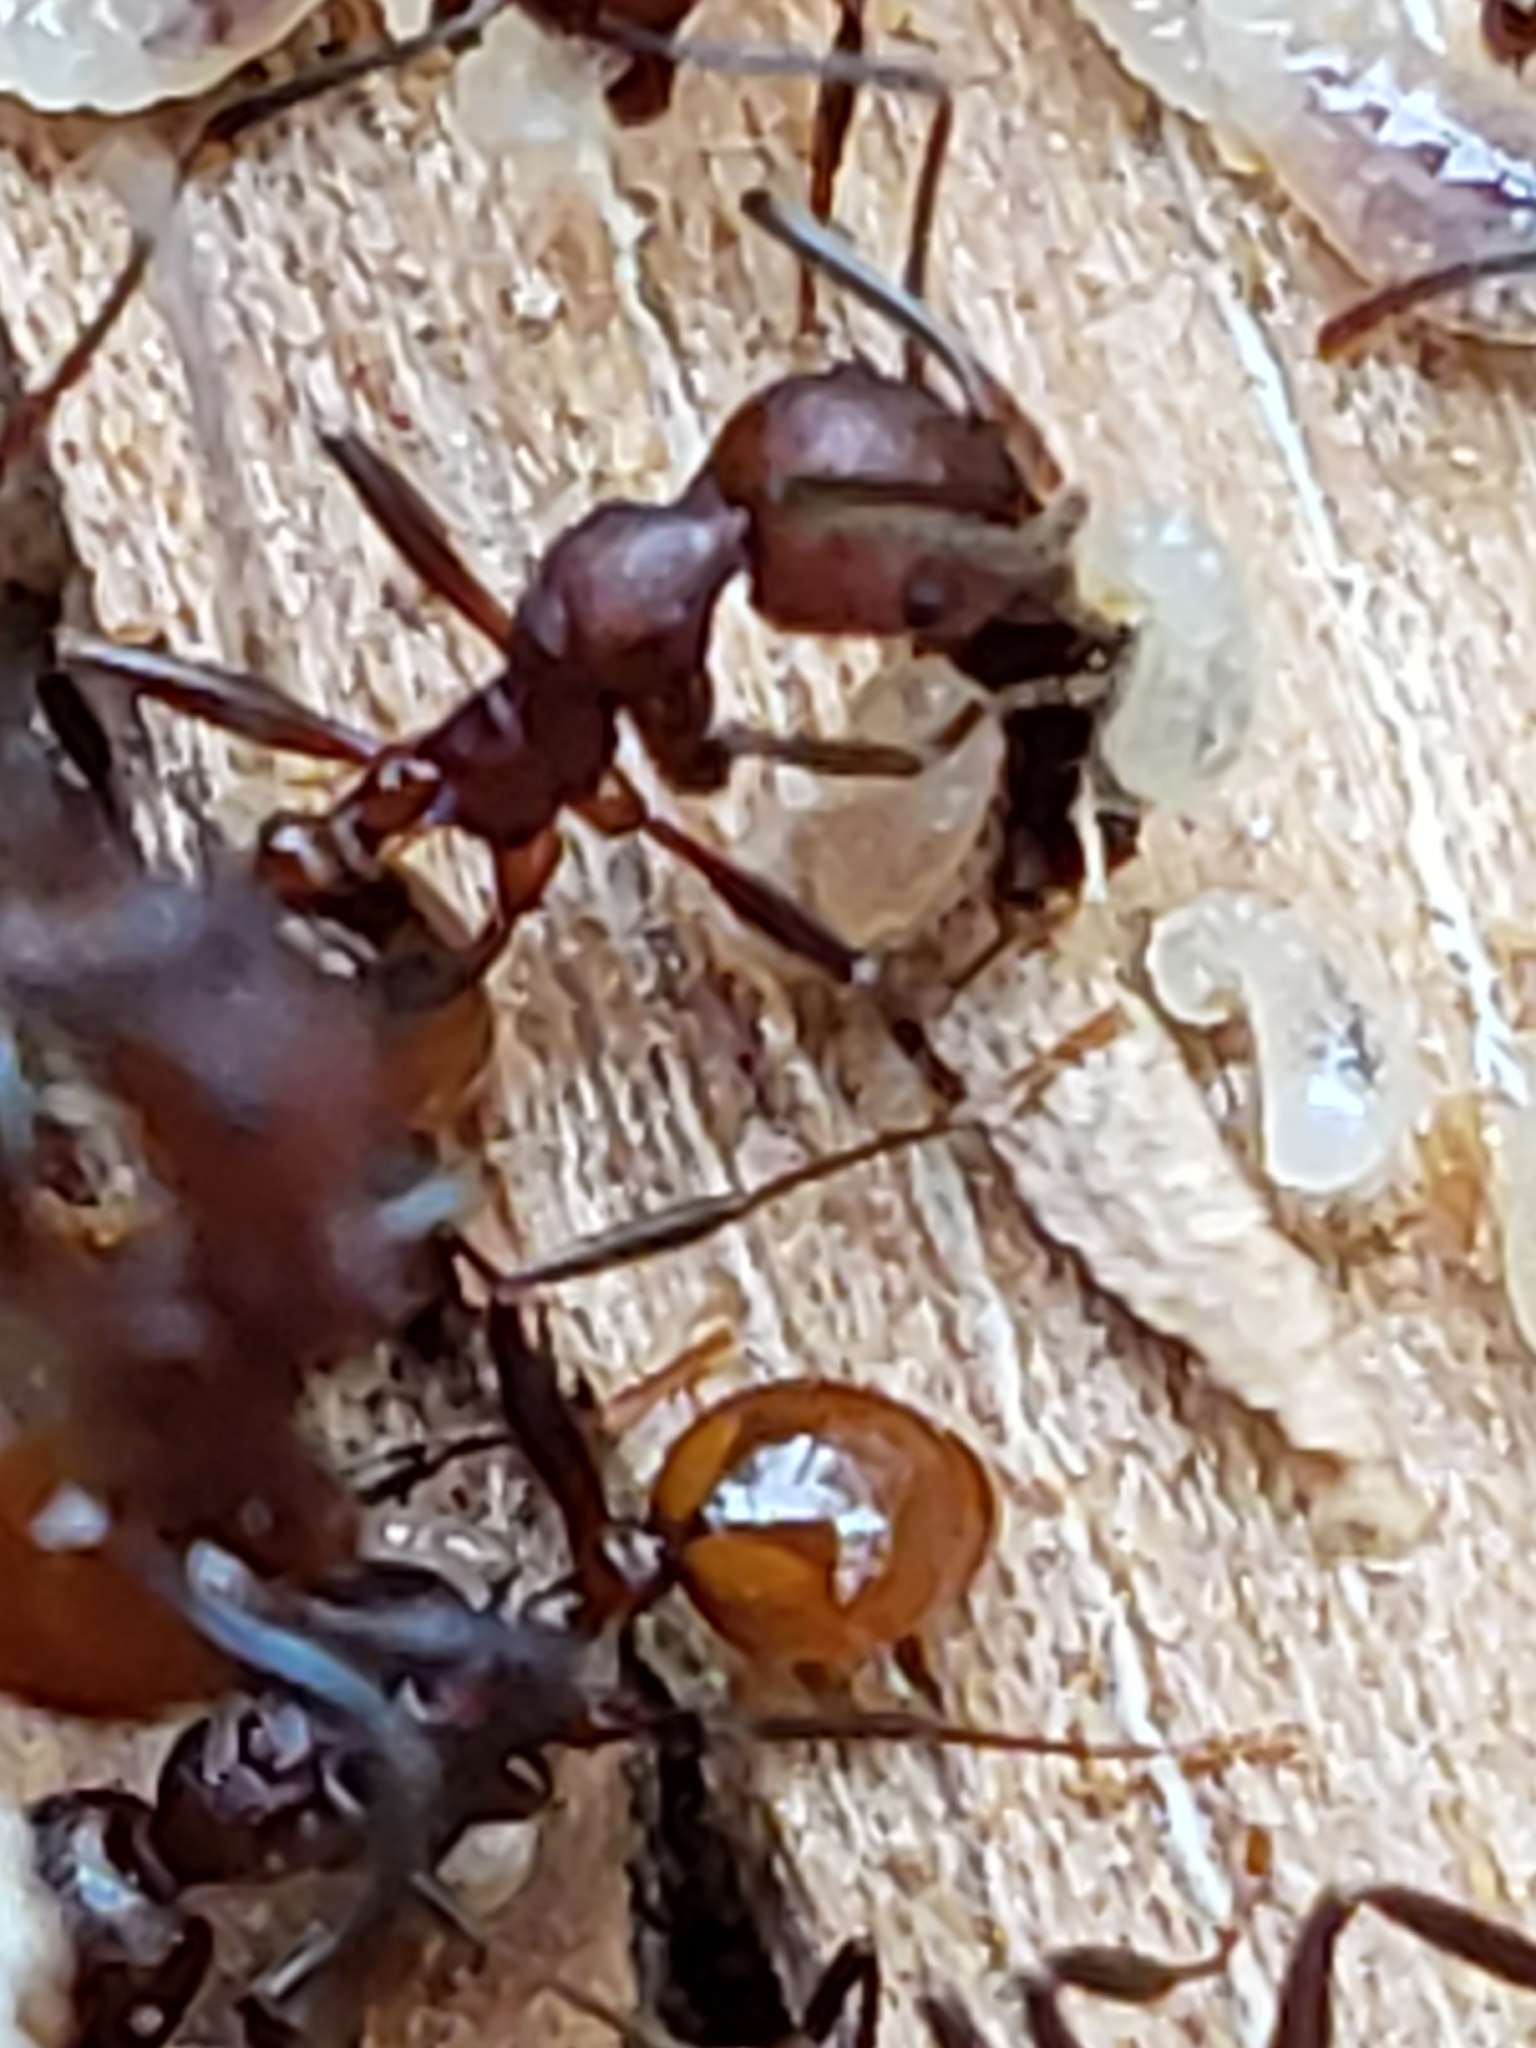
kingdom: Animalia
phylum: Arthropoda
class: Insecta
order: Hymenoptera
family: Formicidae
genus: Aphaenogaster
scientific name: Aphaenogaster tennesseensis
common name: Tennessee thread-waisted ant
